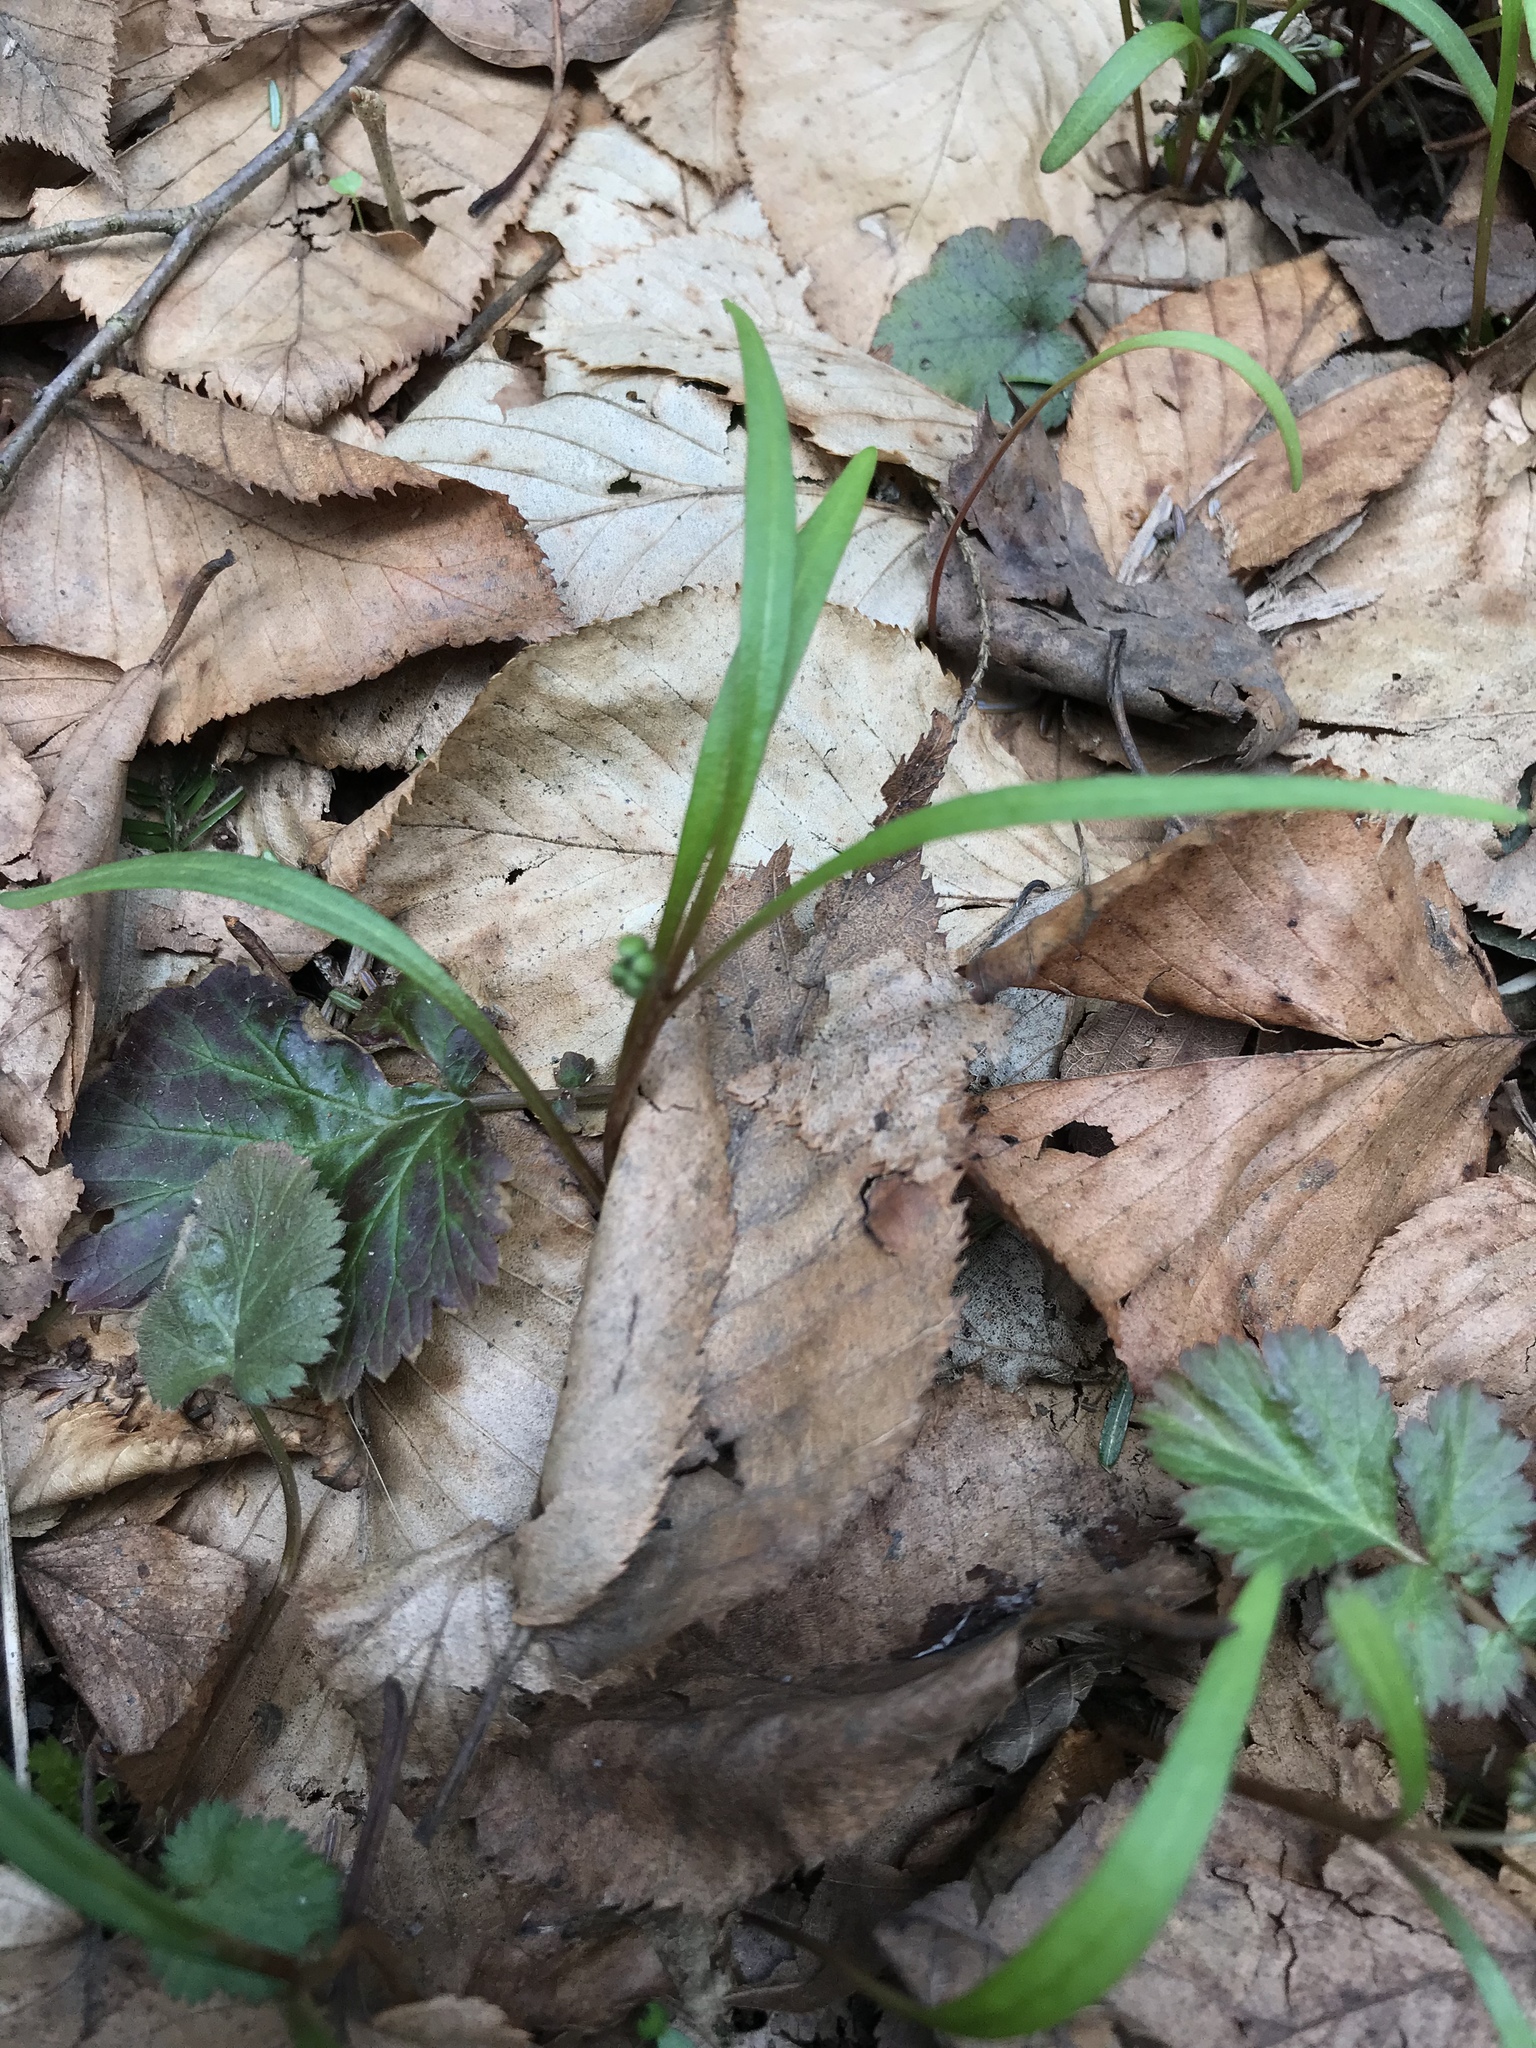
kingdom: Plantae
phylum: Tracheophyta
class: Magnoliopsida
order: Caryophyllales
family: Montiaceae
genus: Claytonia
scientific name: Claytonia virginica
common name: Virginia springbeauty
